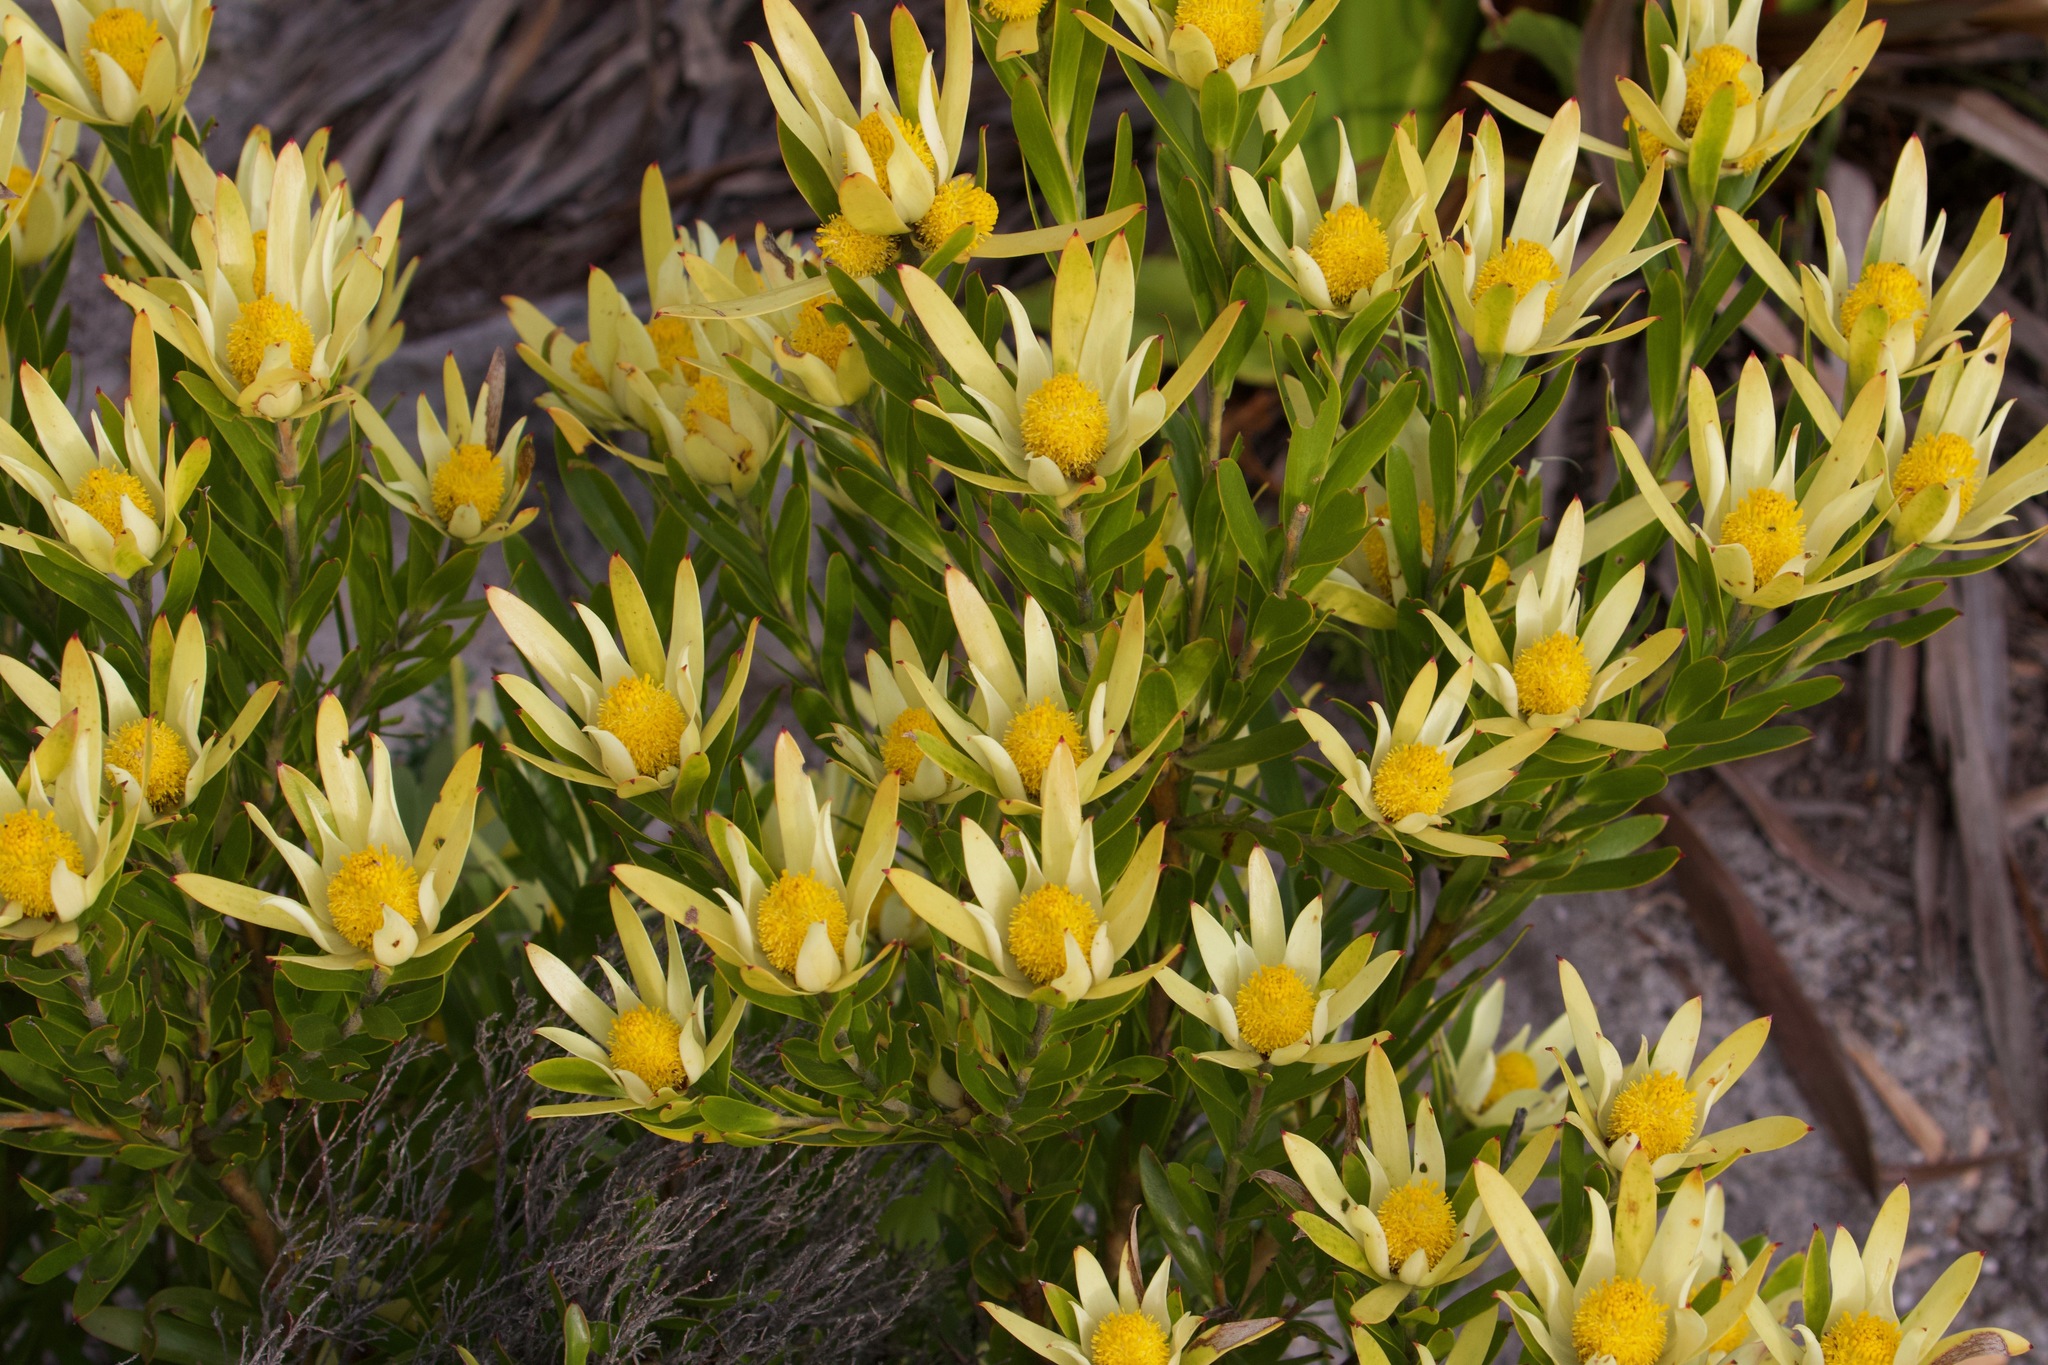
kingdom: Plantae
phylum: Tracheophyta
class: Magnoliopsida
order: Proteales
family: Proteaceae
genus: Leucadendron
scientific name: Leucadendron
